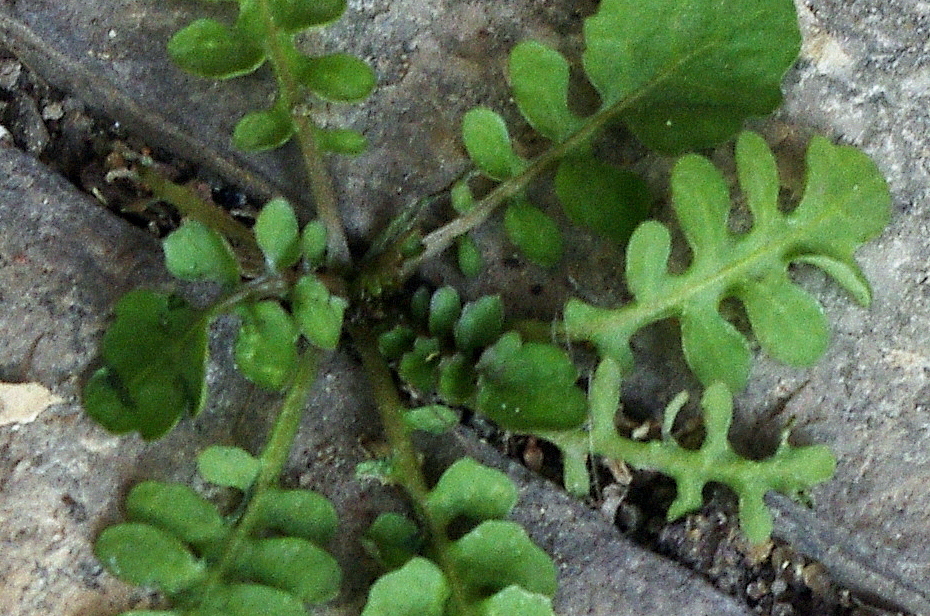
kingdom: Plantae
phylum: Tracheophyta
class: Magnoliopsida
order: Brassicales
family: Brassicaceae
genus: Rorippa
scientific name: Rorippa palustris
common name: Marsh yellow-cress
